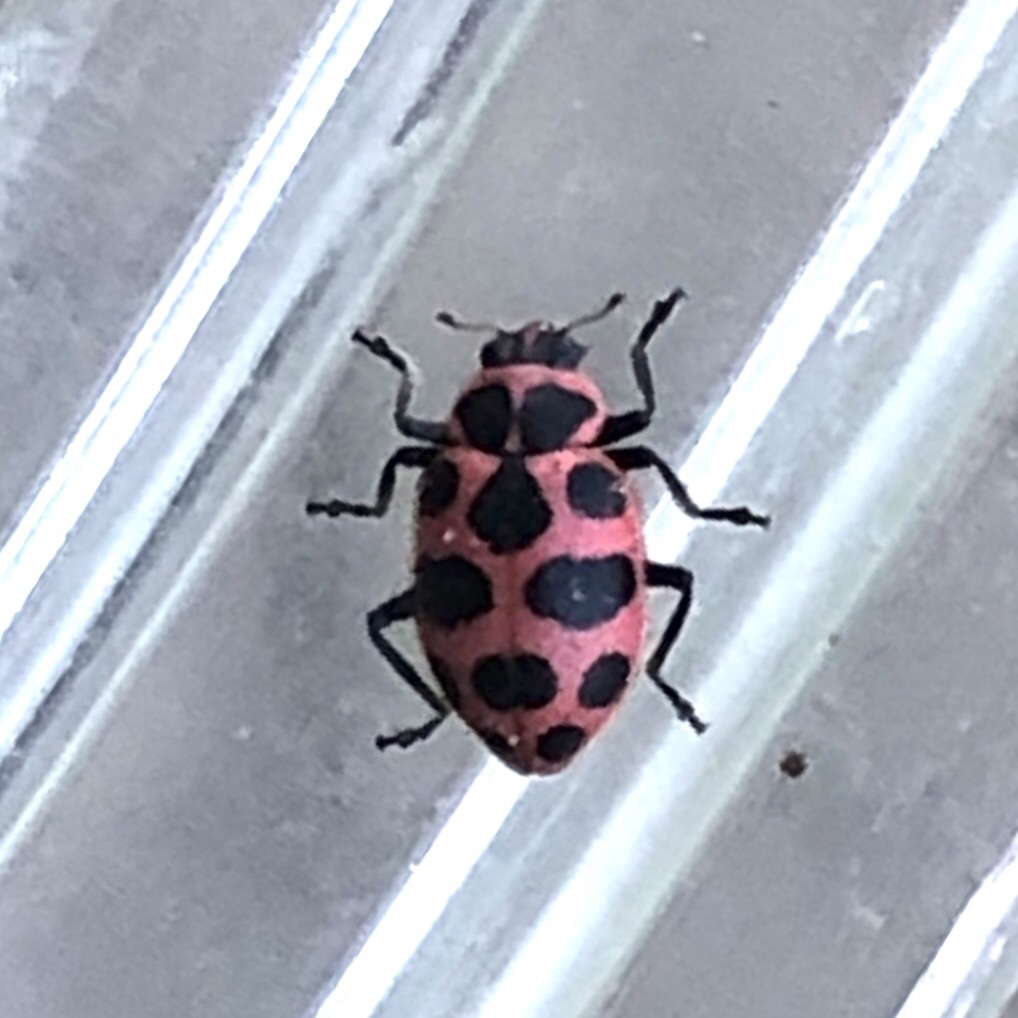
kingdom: Animalia
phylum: Arthropoda
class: Insecta
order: Coleoptera
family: Coccinellidae
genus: Coleomegilla
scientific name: Coleomegilla maculata
